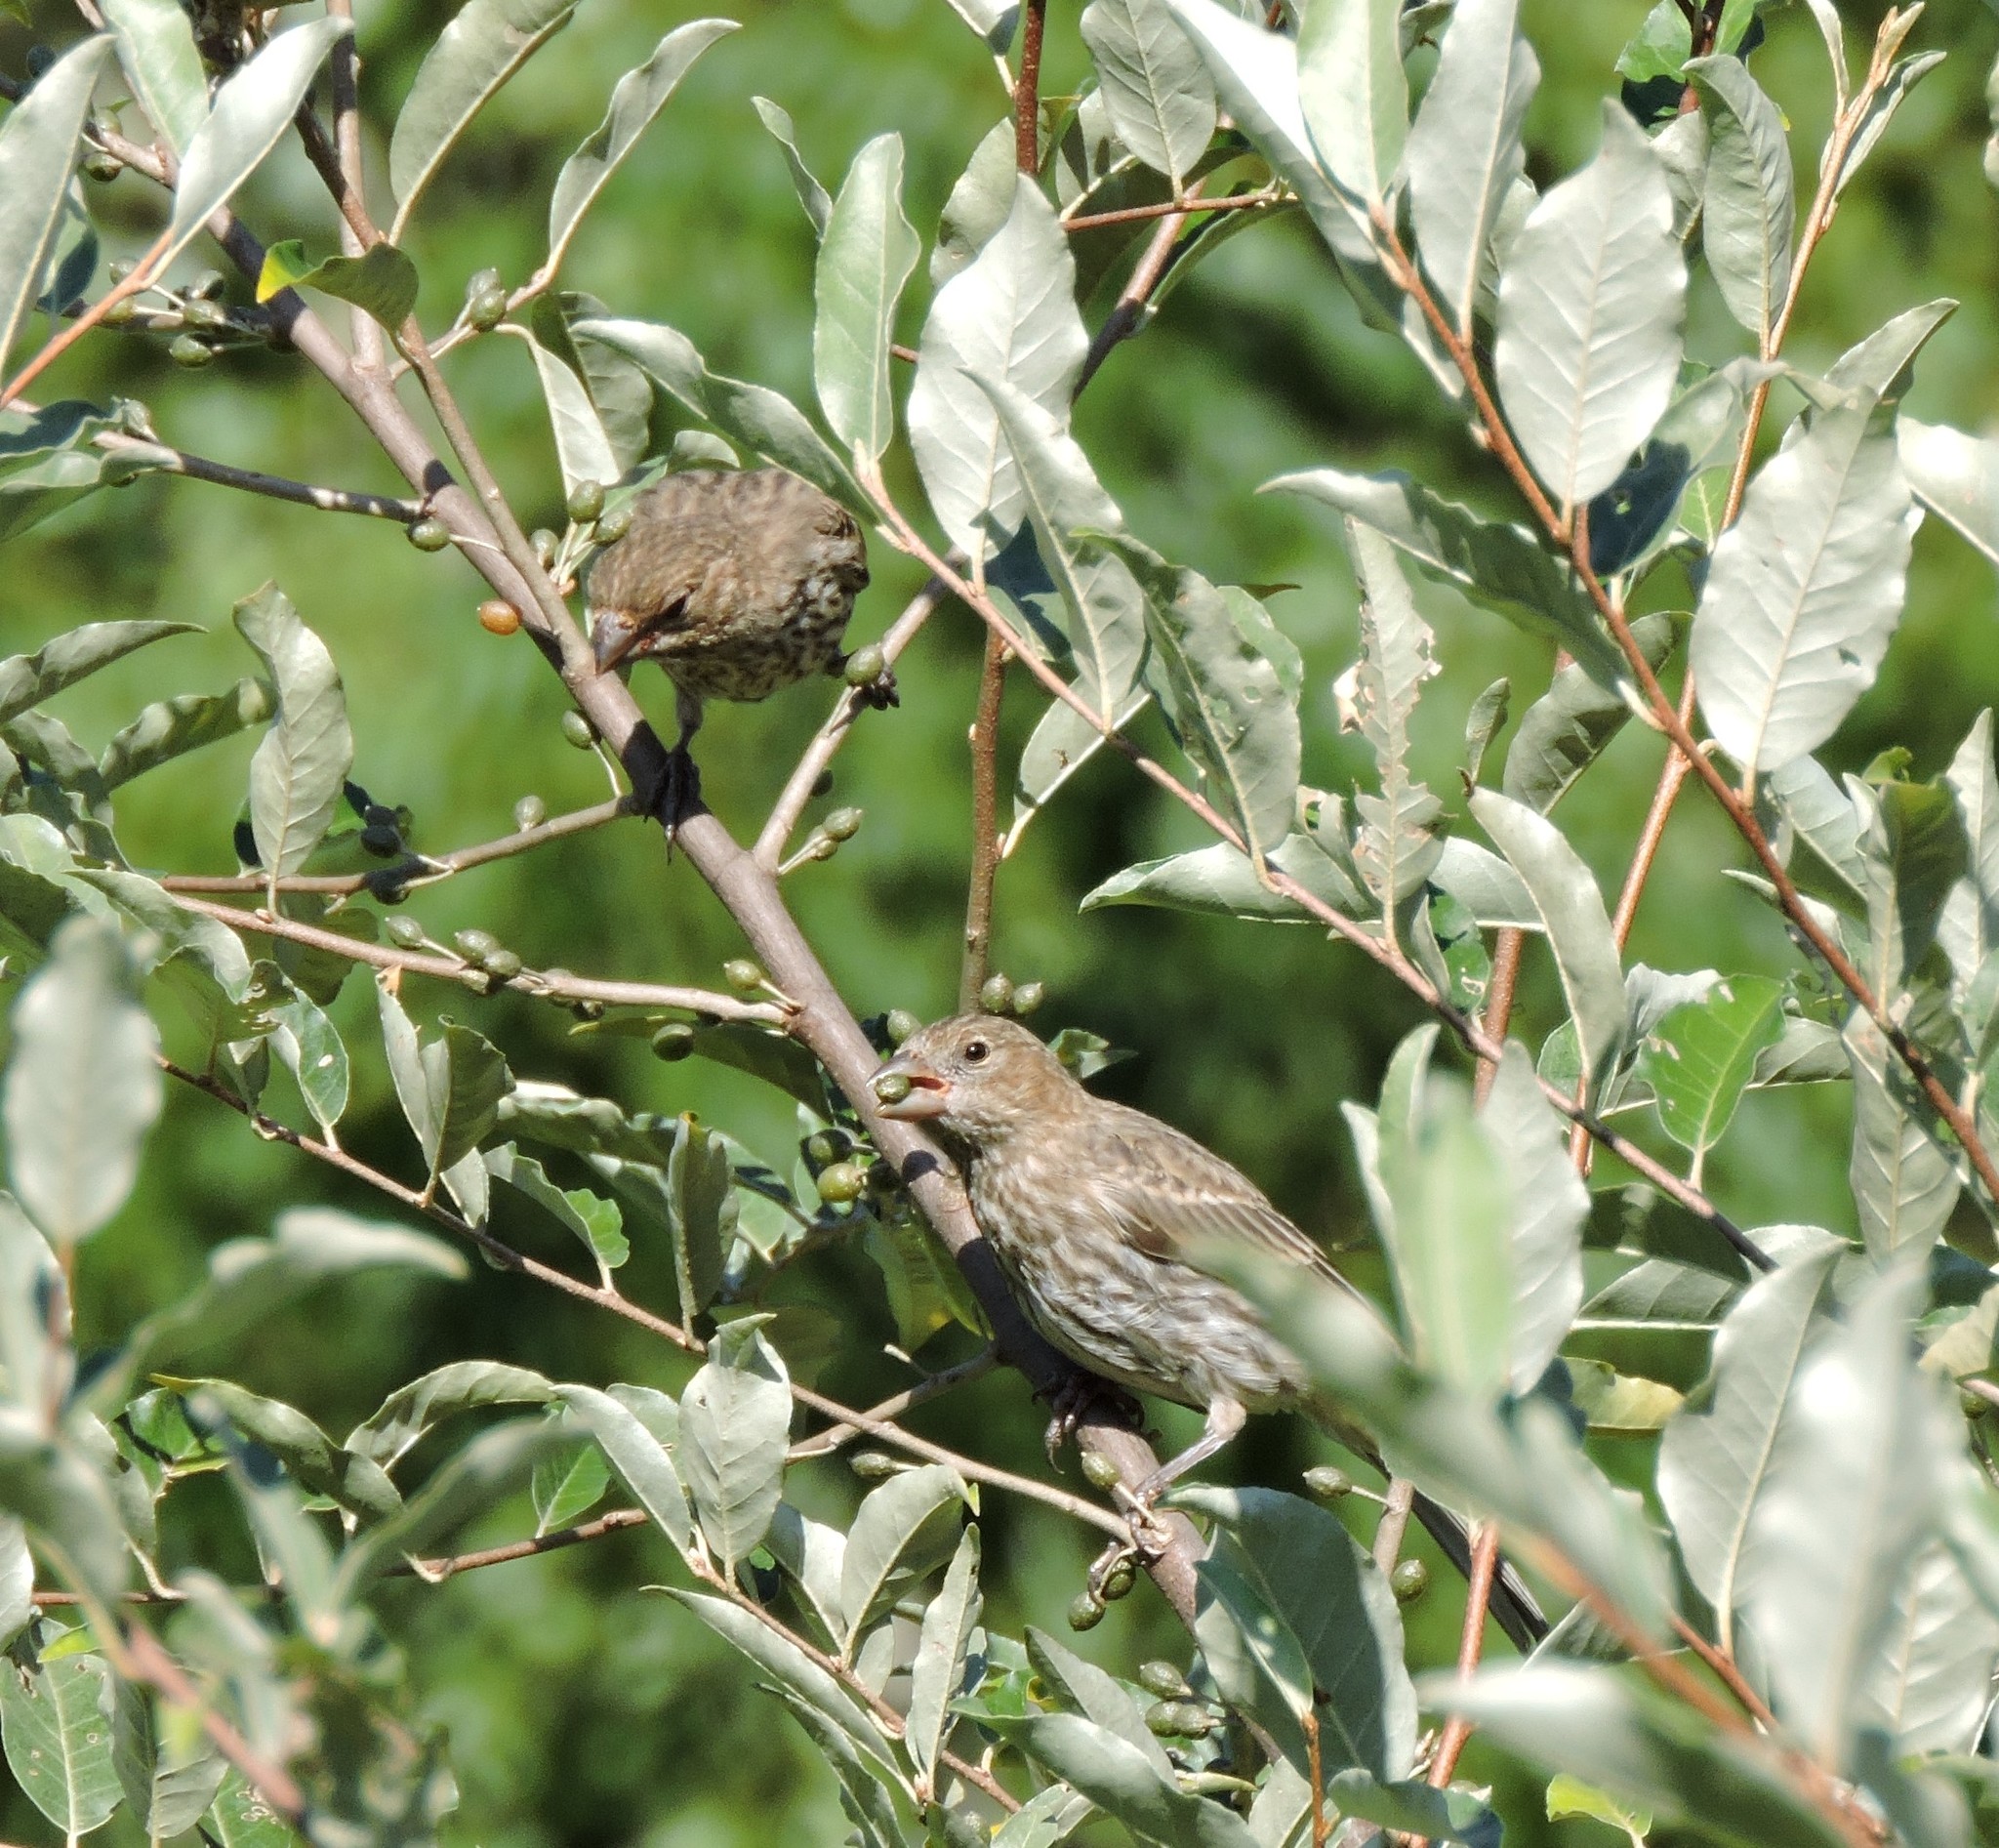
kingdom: Animalia
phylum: Chordata
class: Aves
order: Passeriformes
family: Fringillidae
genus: Haemorhous
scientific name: Haemorhous mexicanus
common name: House finch
